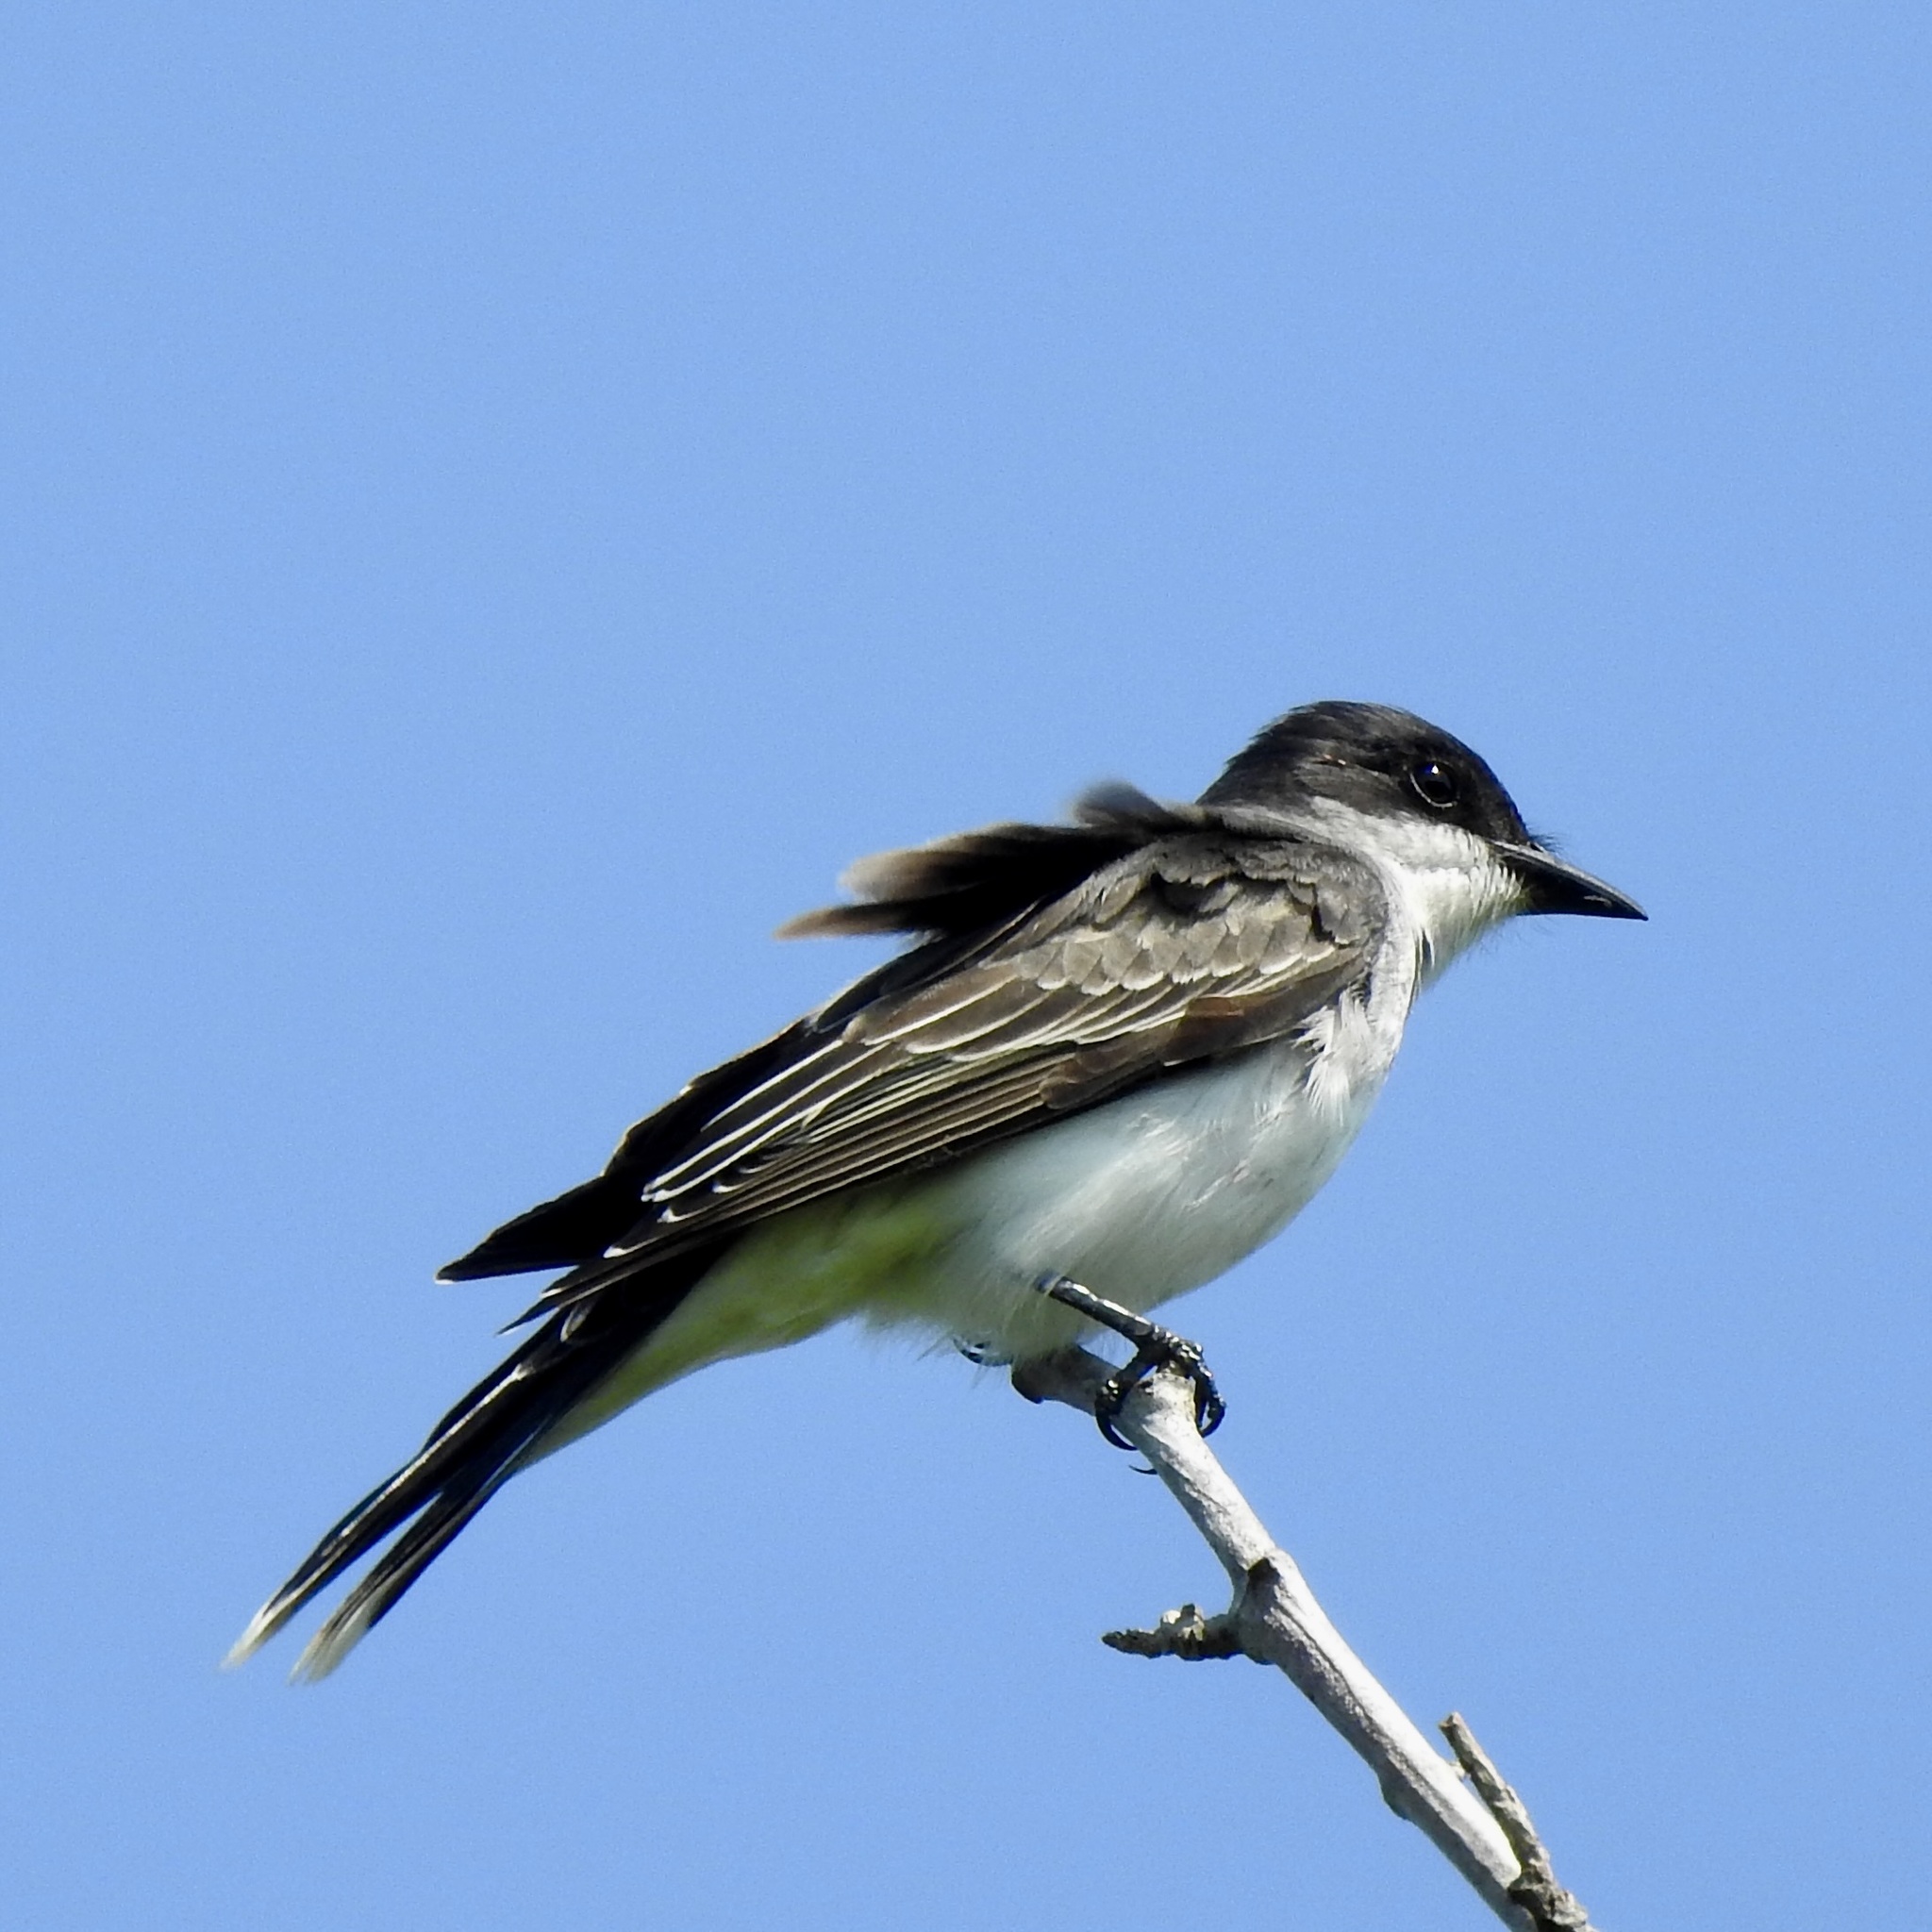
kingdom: Animalia
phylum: Chordata
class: Aves
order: Passeriformes
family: Tyrannidae
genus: Tyrannus
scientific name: Tyrannus tyrannus
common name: Eastern kingbird
